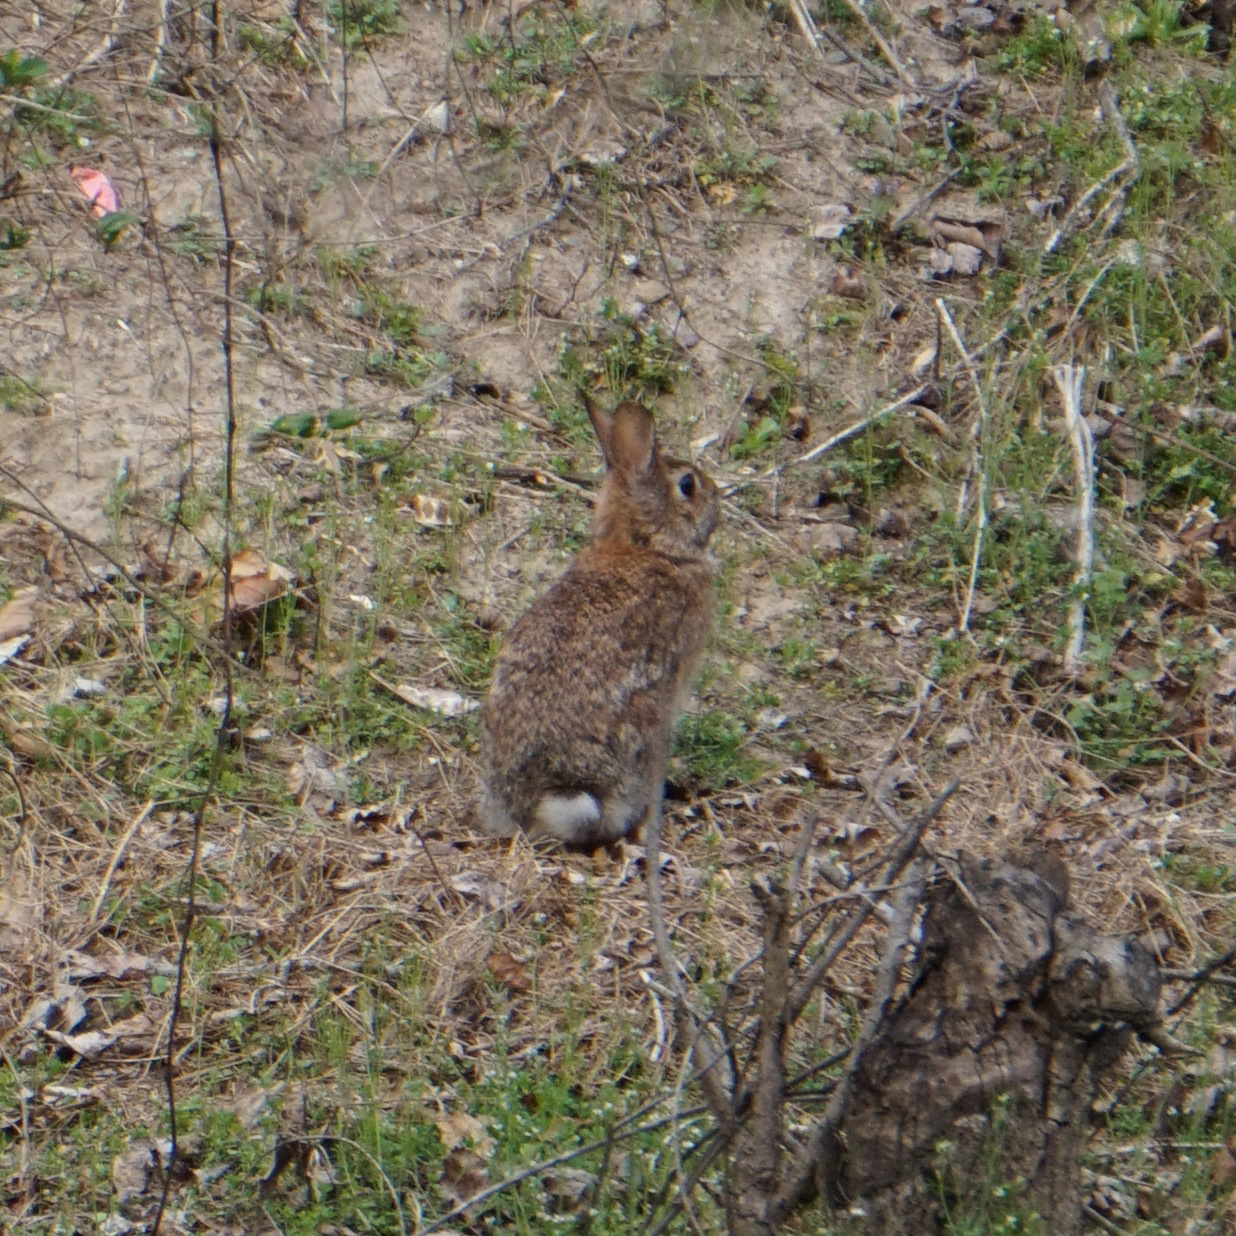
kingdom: Animalia
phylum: Chordata
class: Mammalia
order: Lagomorpha
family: Leporidae
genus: Sylvilagus
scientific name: Sylvilagus floridanus
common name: Eastern cottontail
